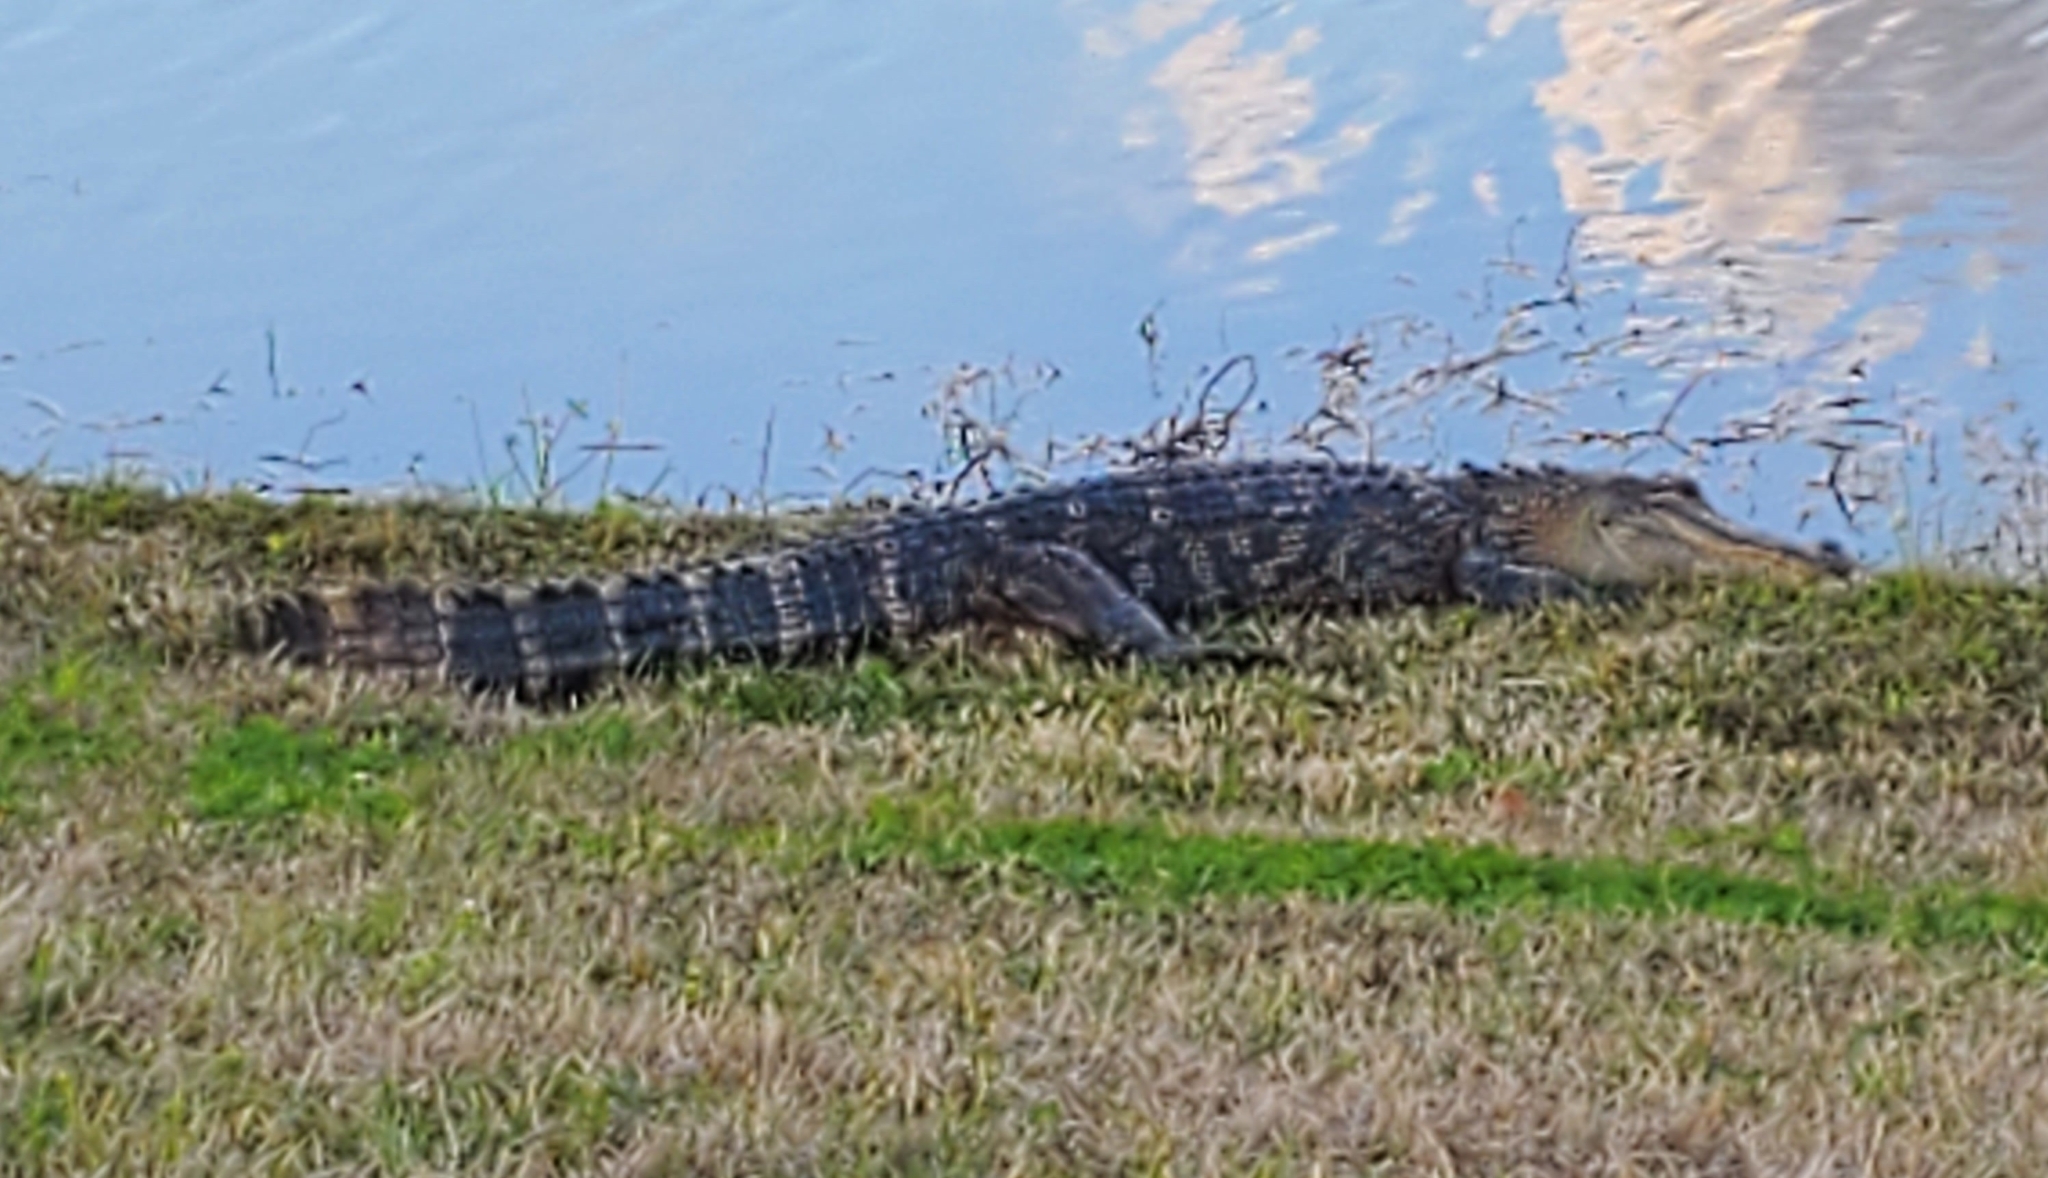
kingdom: Animalia
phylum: Chordata
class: Crocodylia
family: Alligatoridae
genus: Alligator
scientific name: Alligator mississippiensis
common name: American alligator
